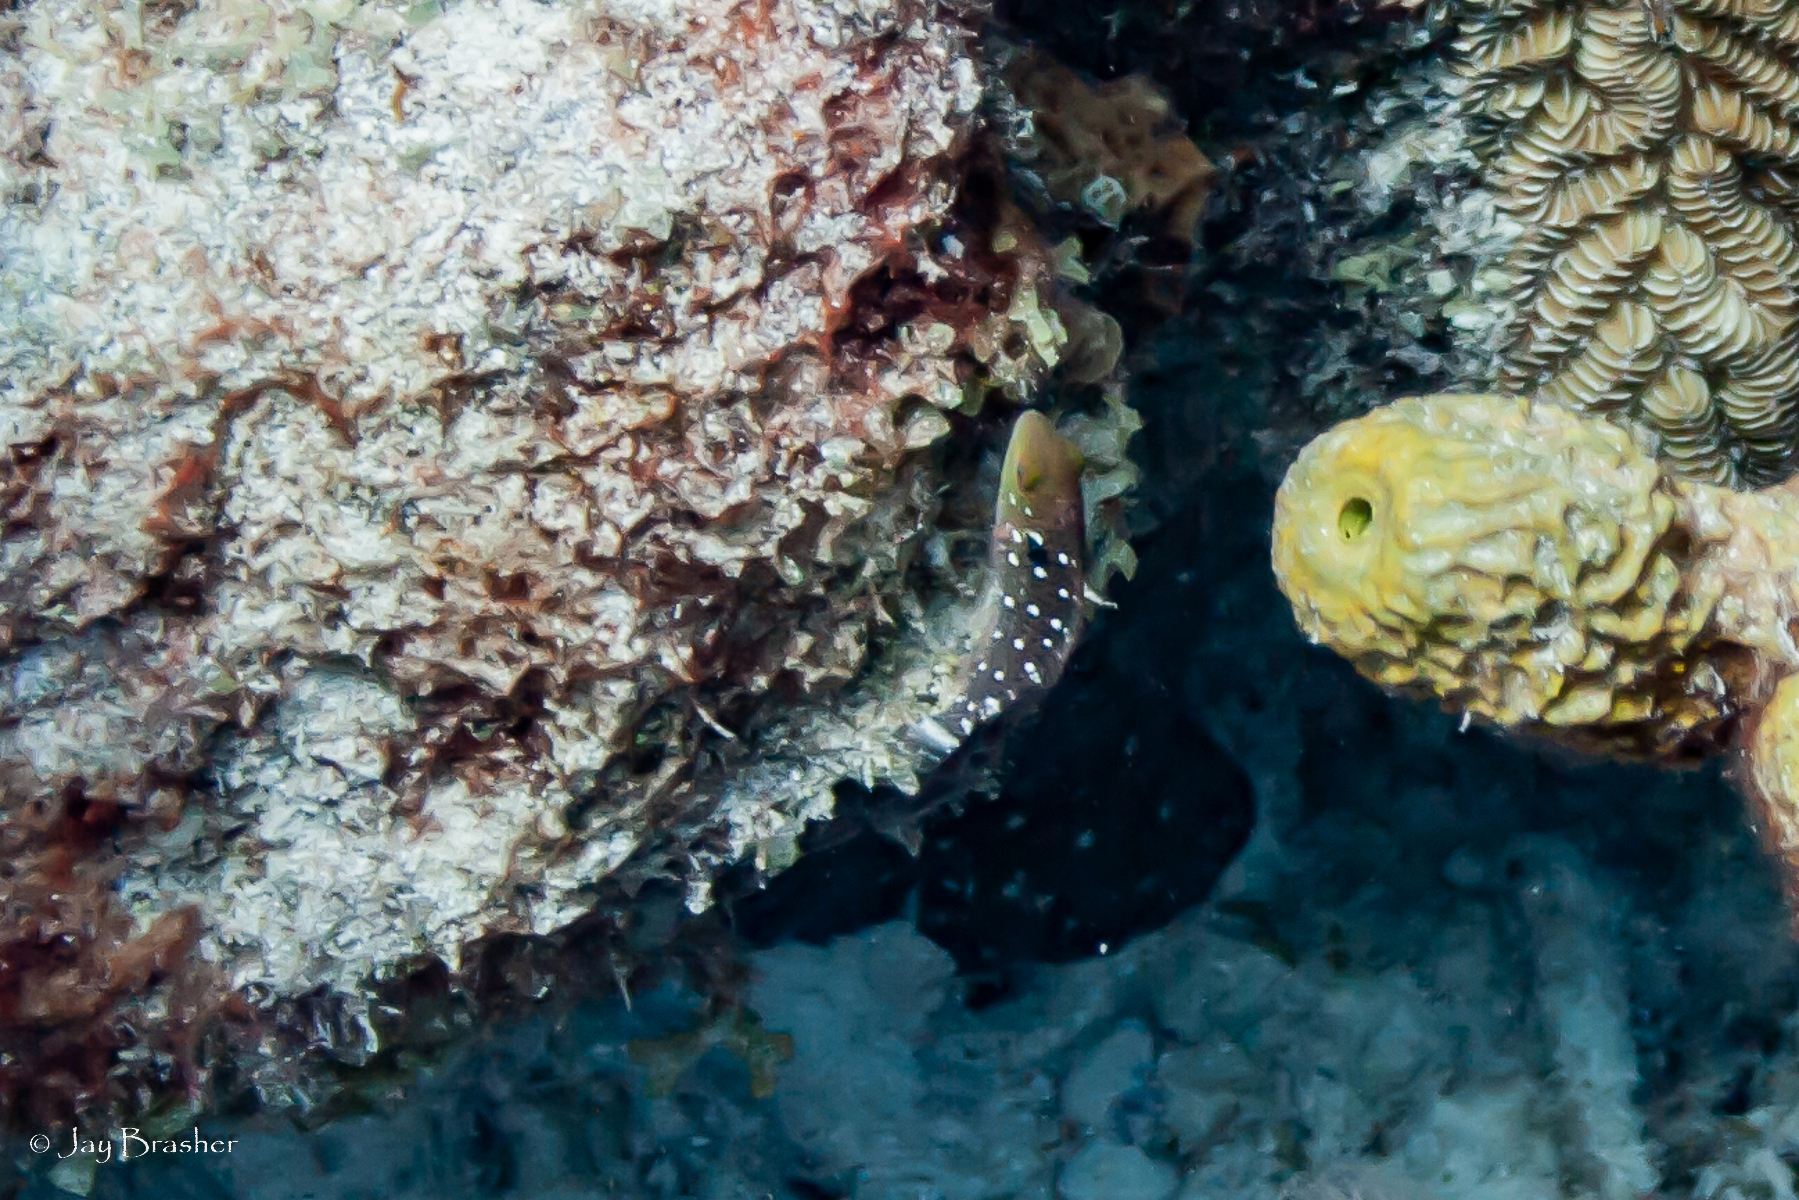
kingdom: Animalia
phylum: Chordata
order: Perciformes
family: Scaridae
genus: Sparisoma
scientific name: Sparisoma viride
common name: Stoplight parrotfish
